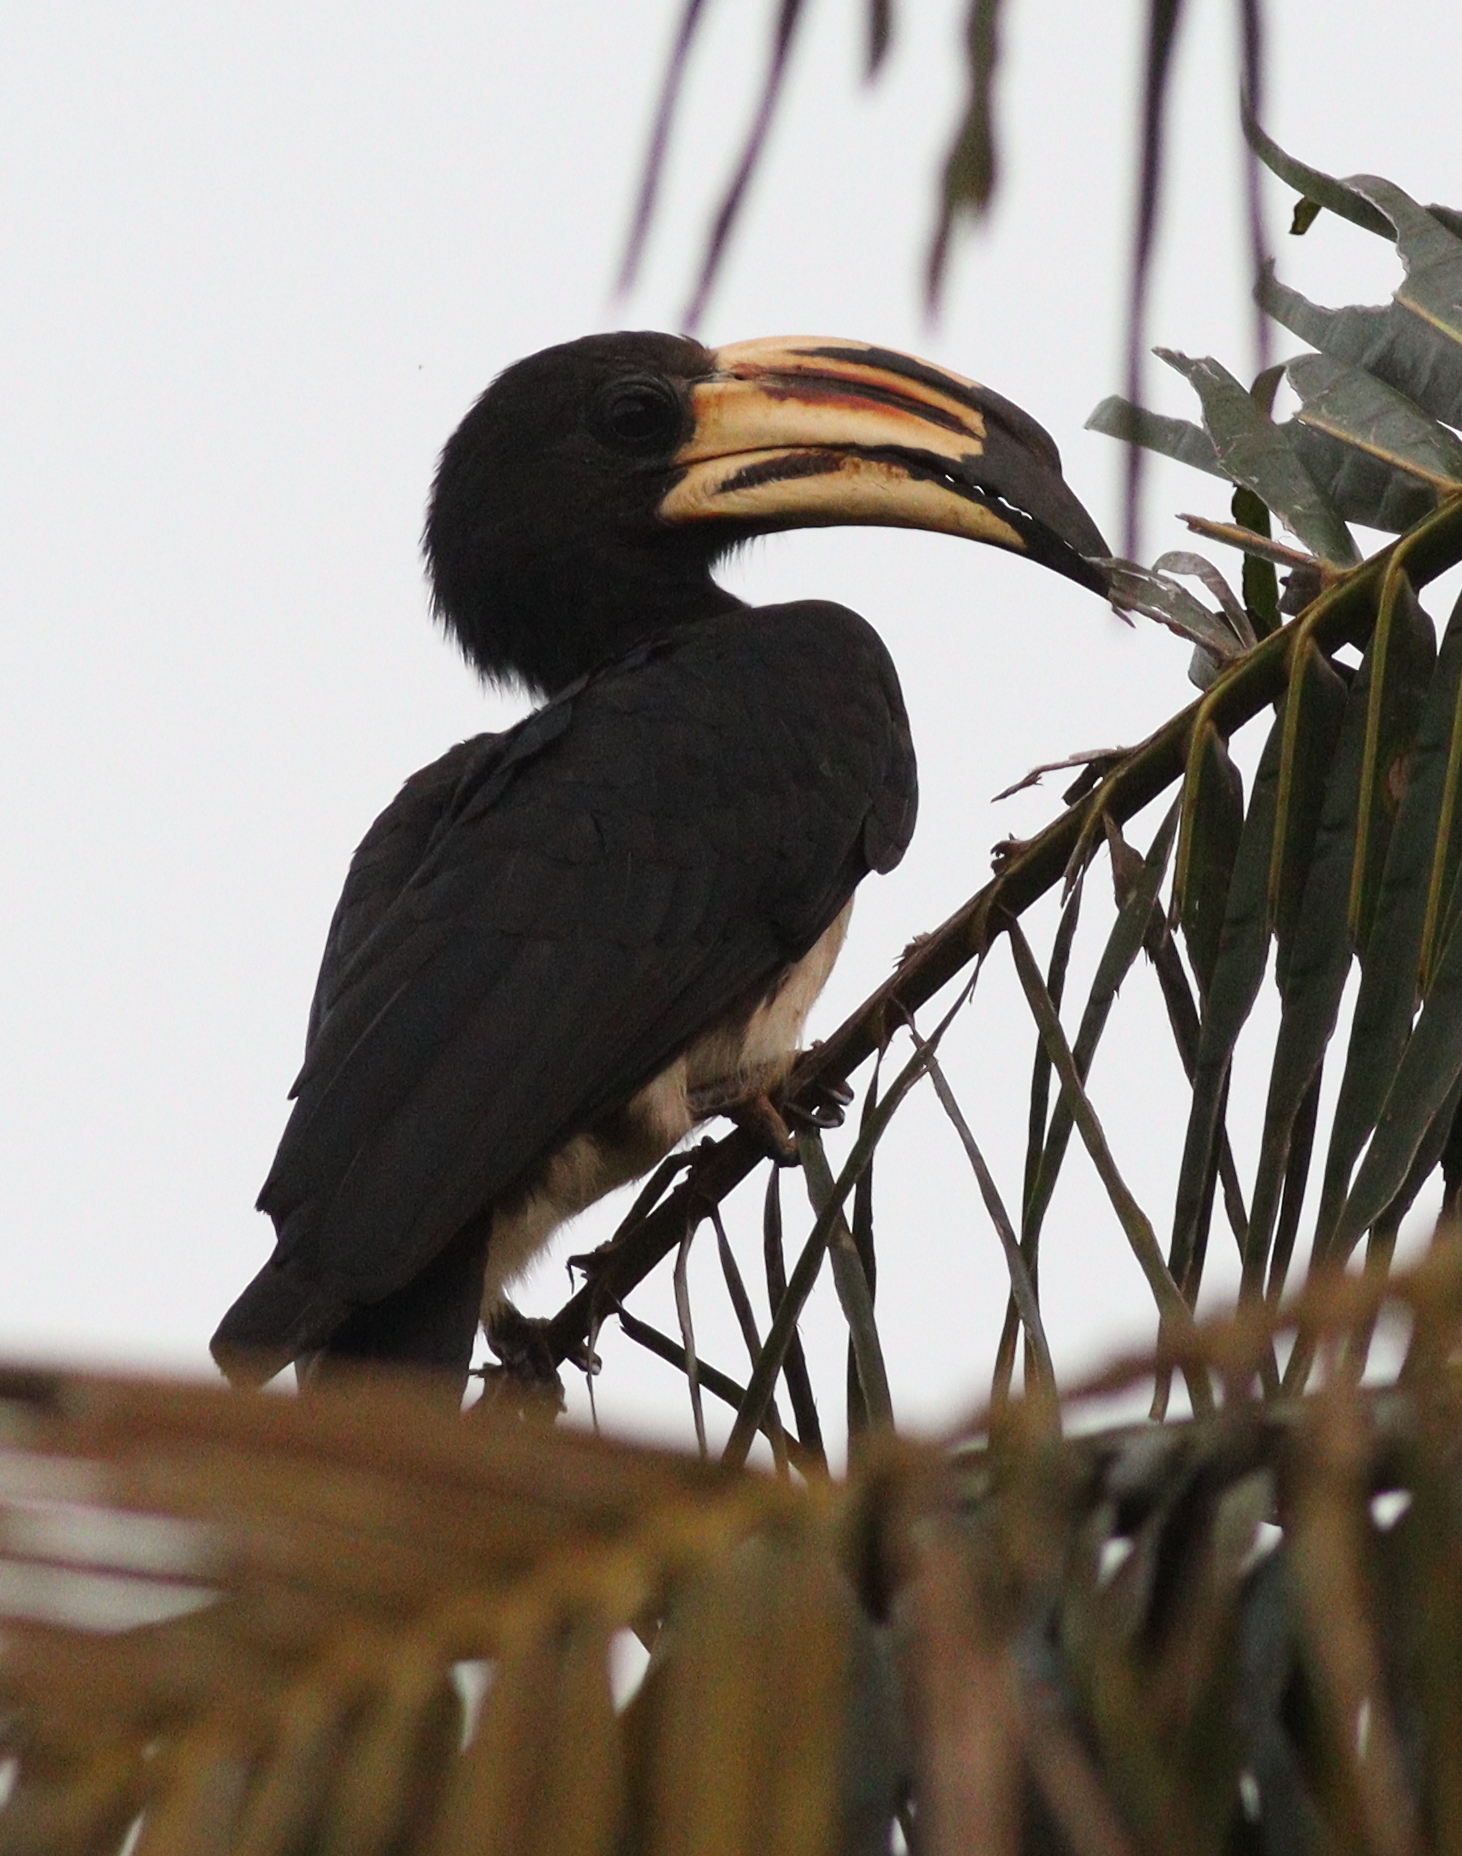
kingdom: Animalia
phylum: Chordata
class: Aves
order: Bucerotiformes
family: Bucerotidae
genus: Lophoceros
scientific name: Lophoceros fasciatus
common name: African pied hornbill
